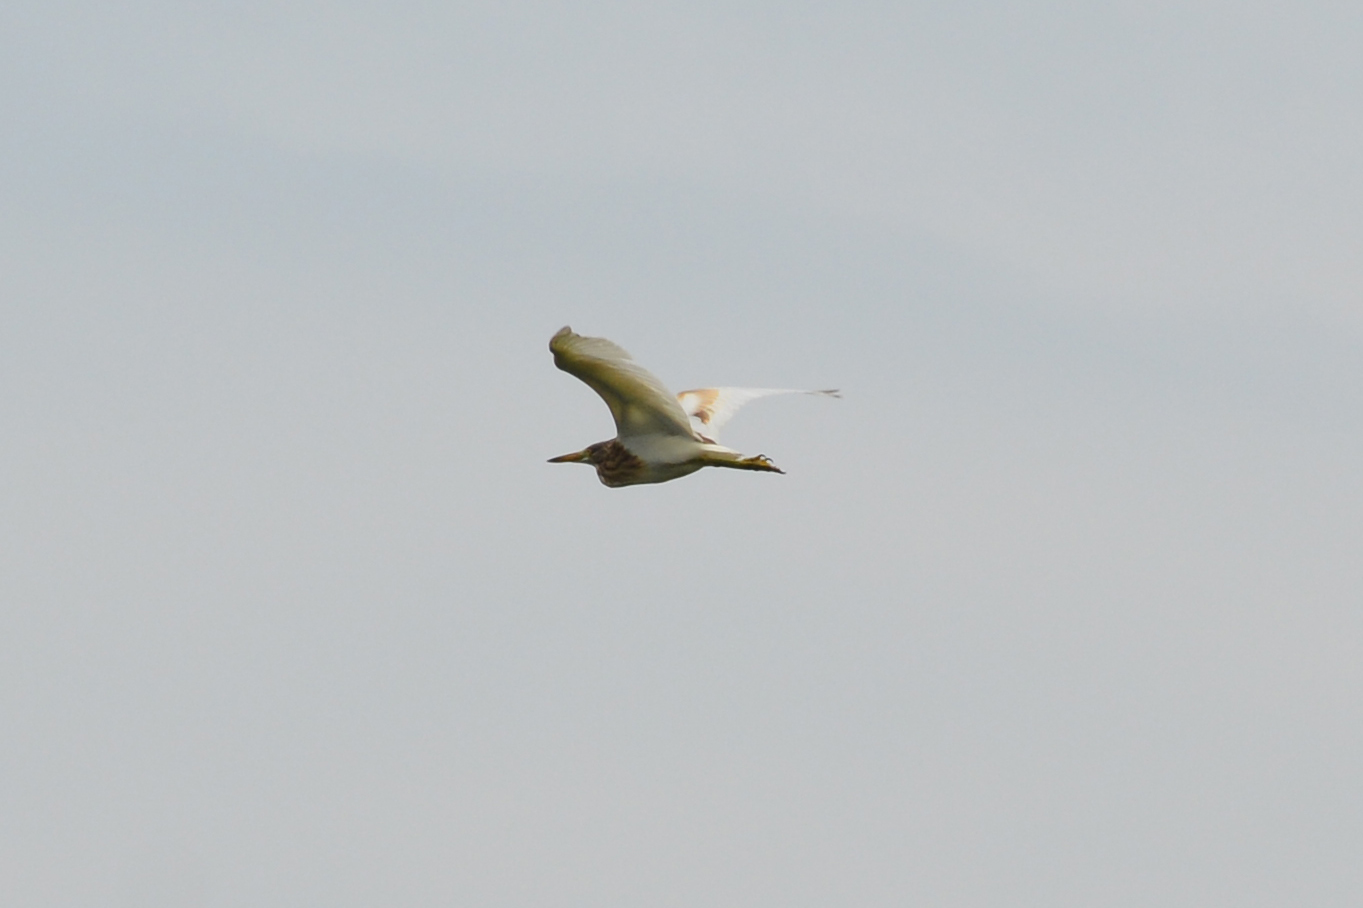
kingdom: Animalia
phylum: Chordata
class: Aves
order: Pelecaniformes
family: Ardeidae
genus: Ardeola
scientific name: Ardeola ralloides
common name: Squacco heron
